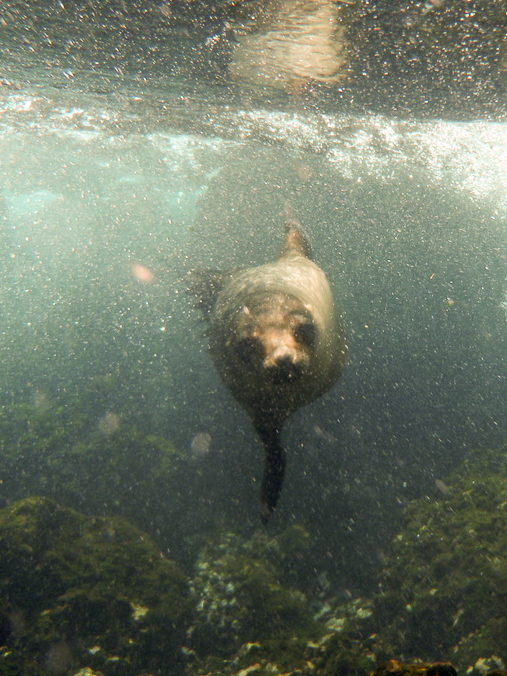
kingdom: Animalia
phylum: Chordata
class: Mammalia
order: Carnivora
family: Otariidae
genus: Zalophus
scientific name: Zalophus wollebaeki
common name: Galapagos sea lion
